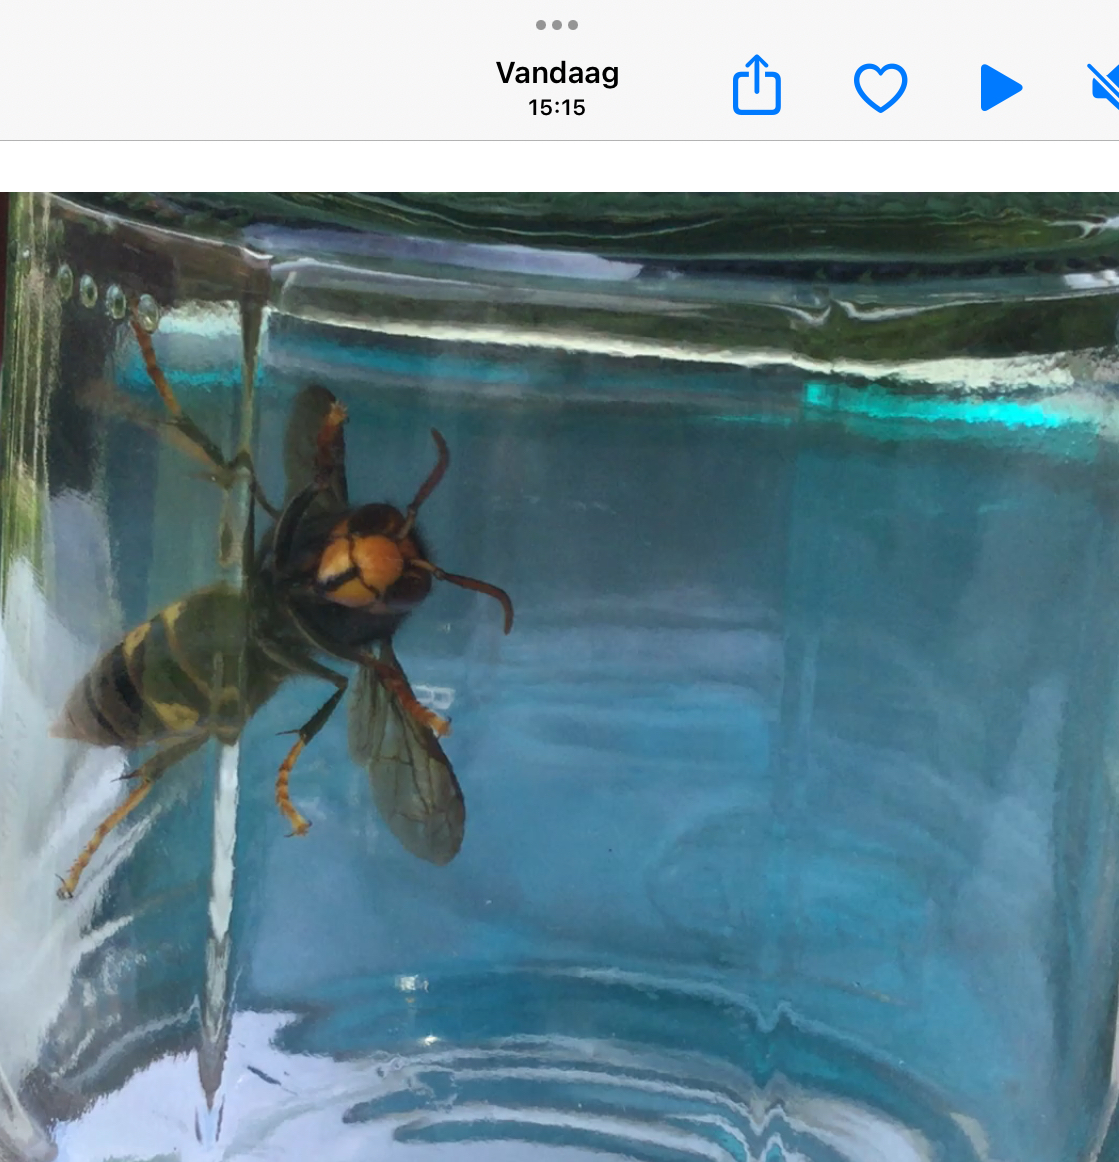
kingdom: Animalia
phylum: Arthropoda
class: Insecta
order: Hymenoptera
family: Vespidae
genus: Vespa
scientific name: Vespa velutina
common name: Asian hornet
